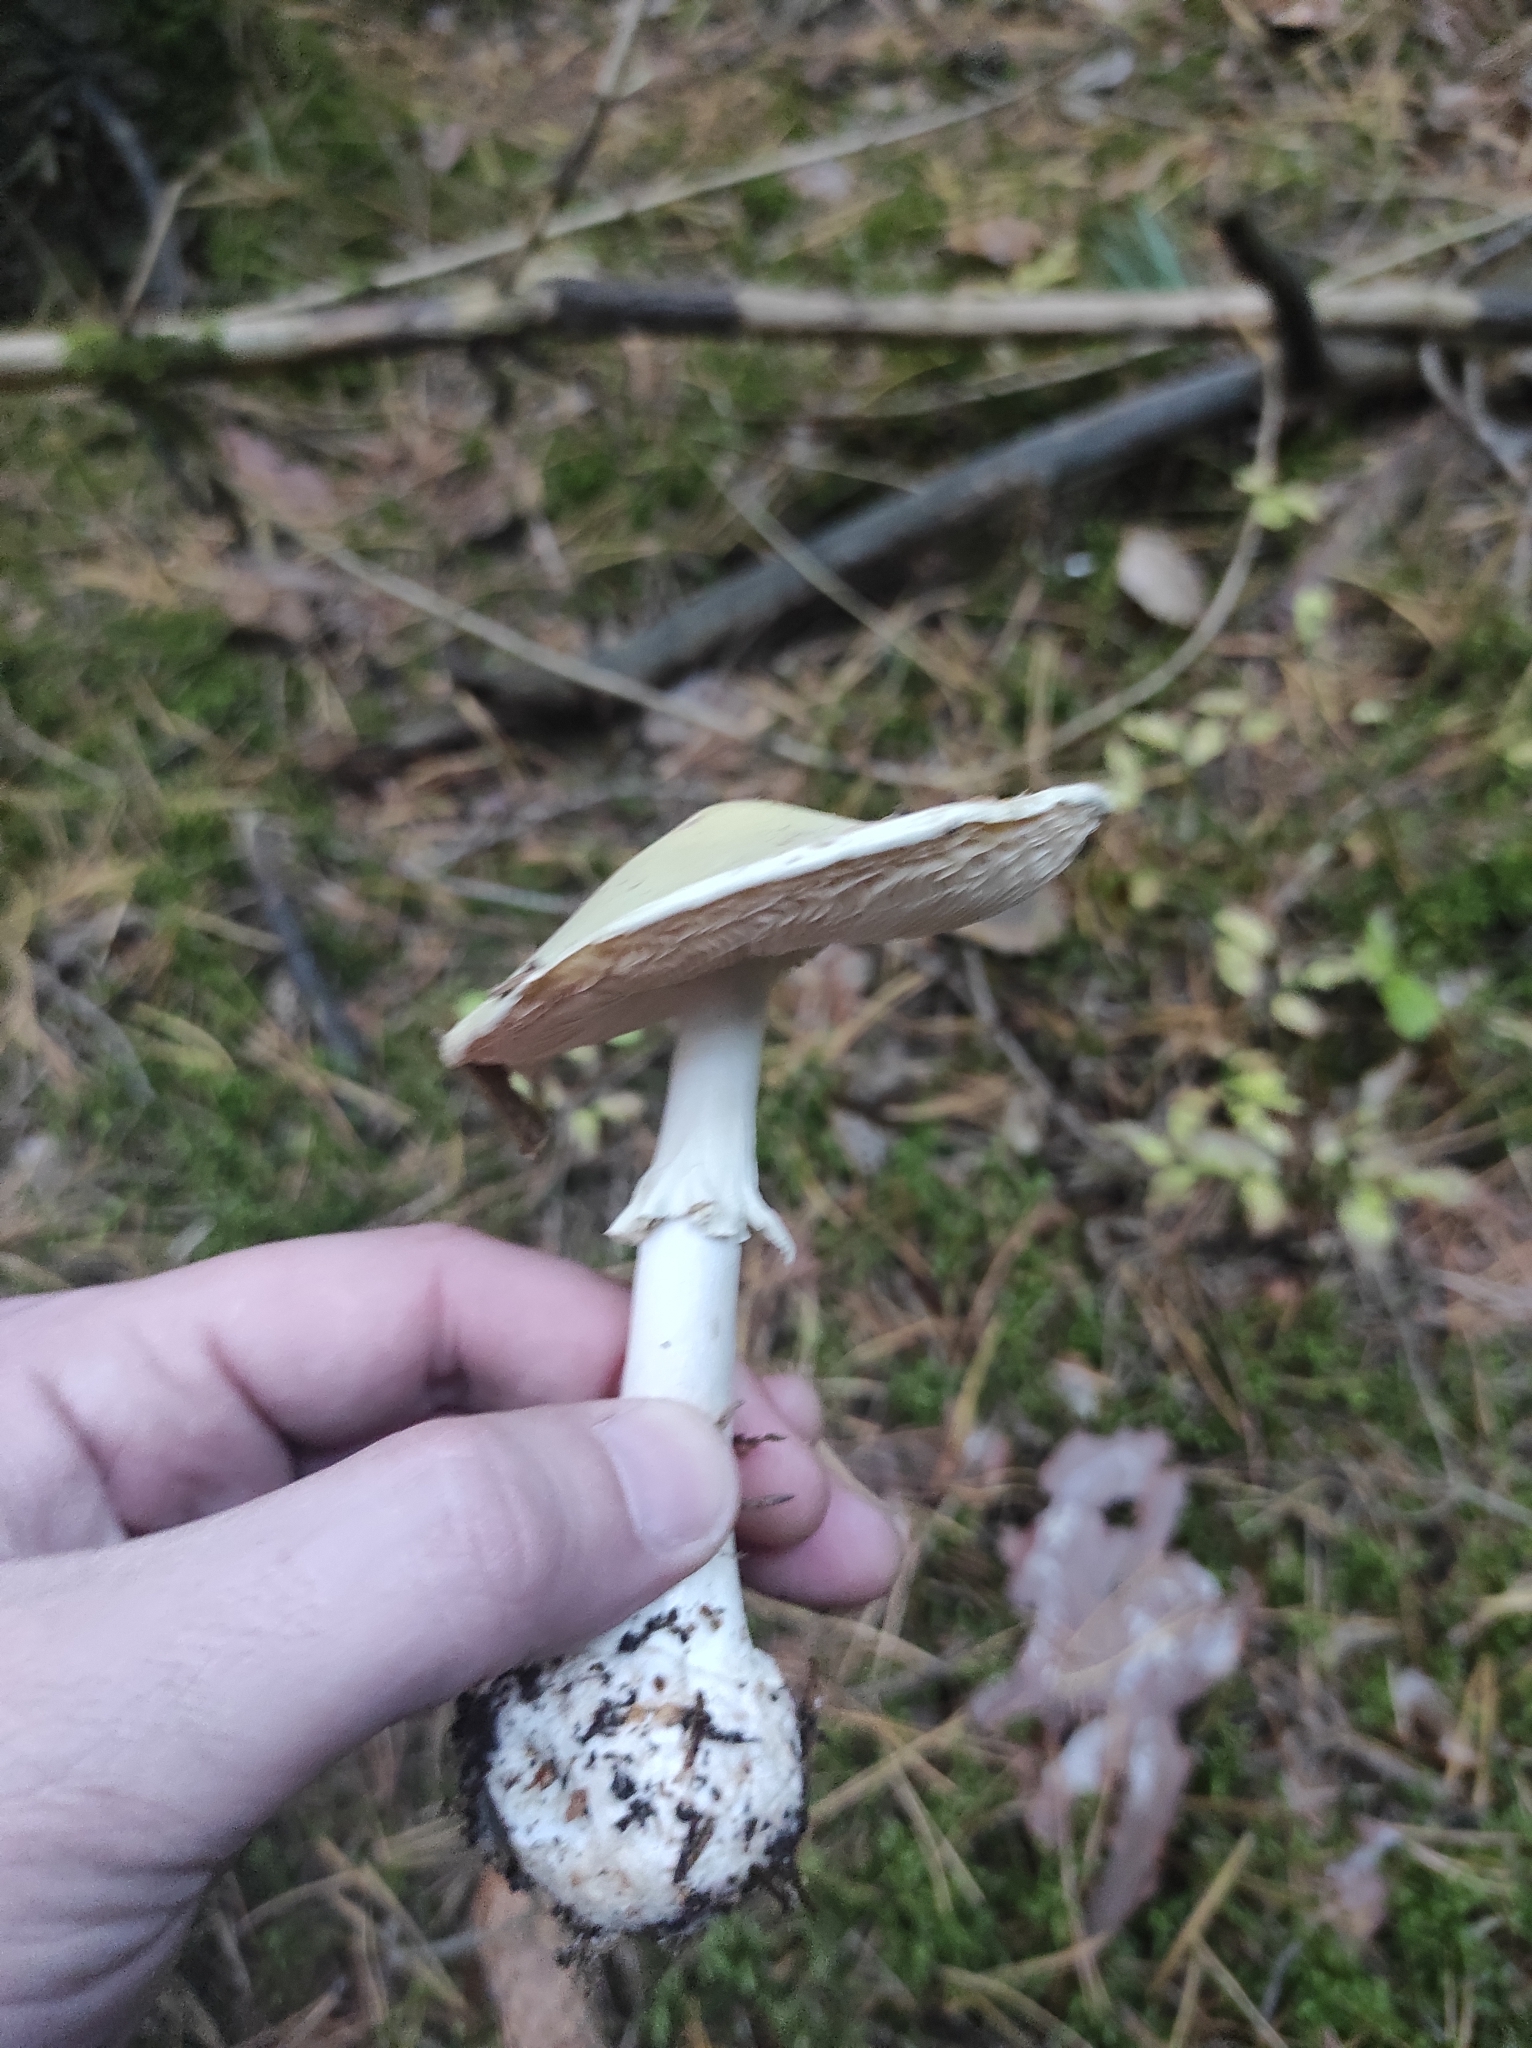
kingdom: Fungi
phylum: Basidiomycota
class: Agaricomycetes
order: Agaricales
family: Amanitaceae
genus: Amanita
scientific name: Amanita citrina
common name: False death-cap
